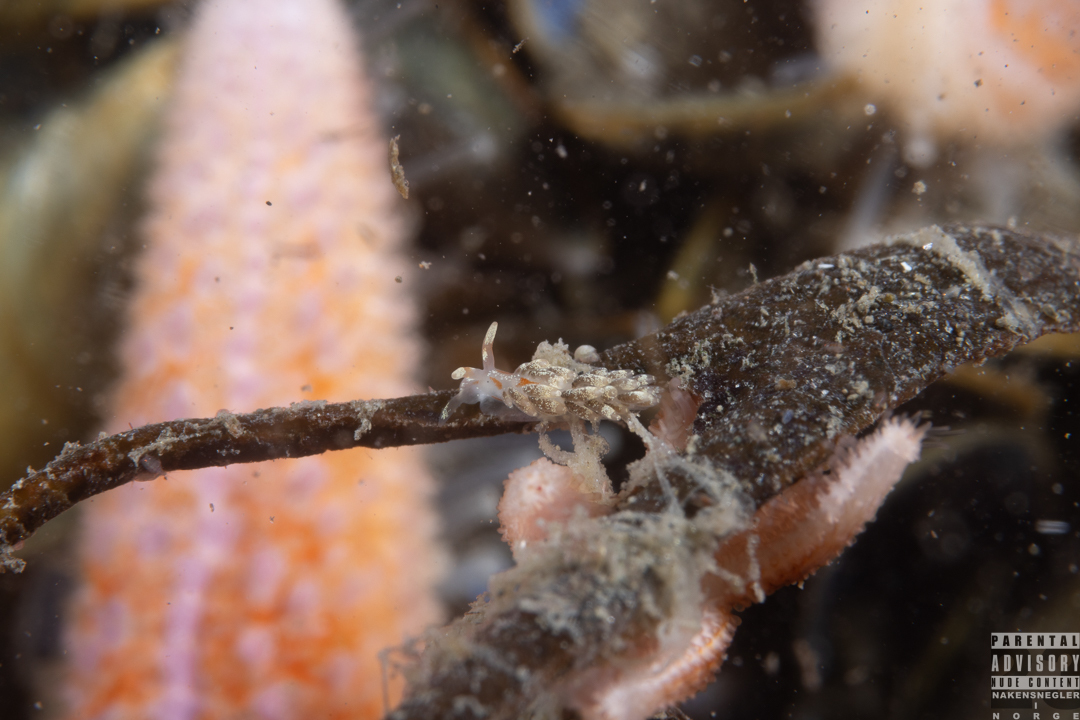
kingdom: Animalia
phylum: Mollusca
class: Gastropoda
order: Nudibranchia
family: Trinchesiidae
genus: Trinchesia
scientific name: Trinchesia foliata
